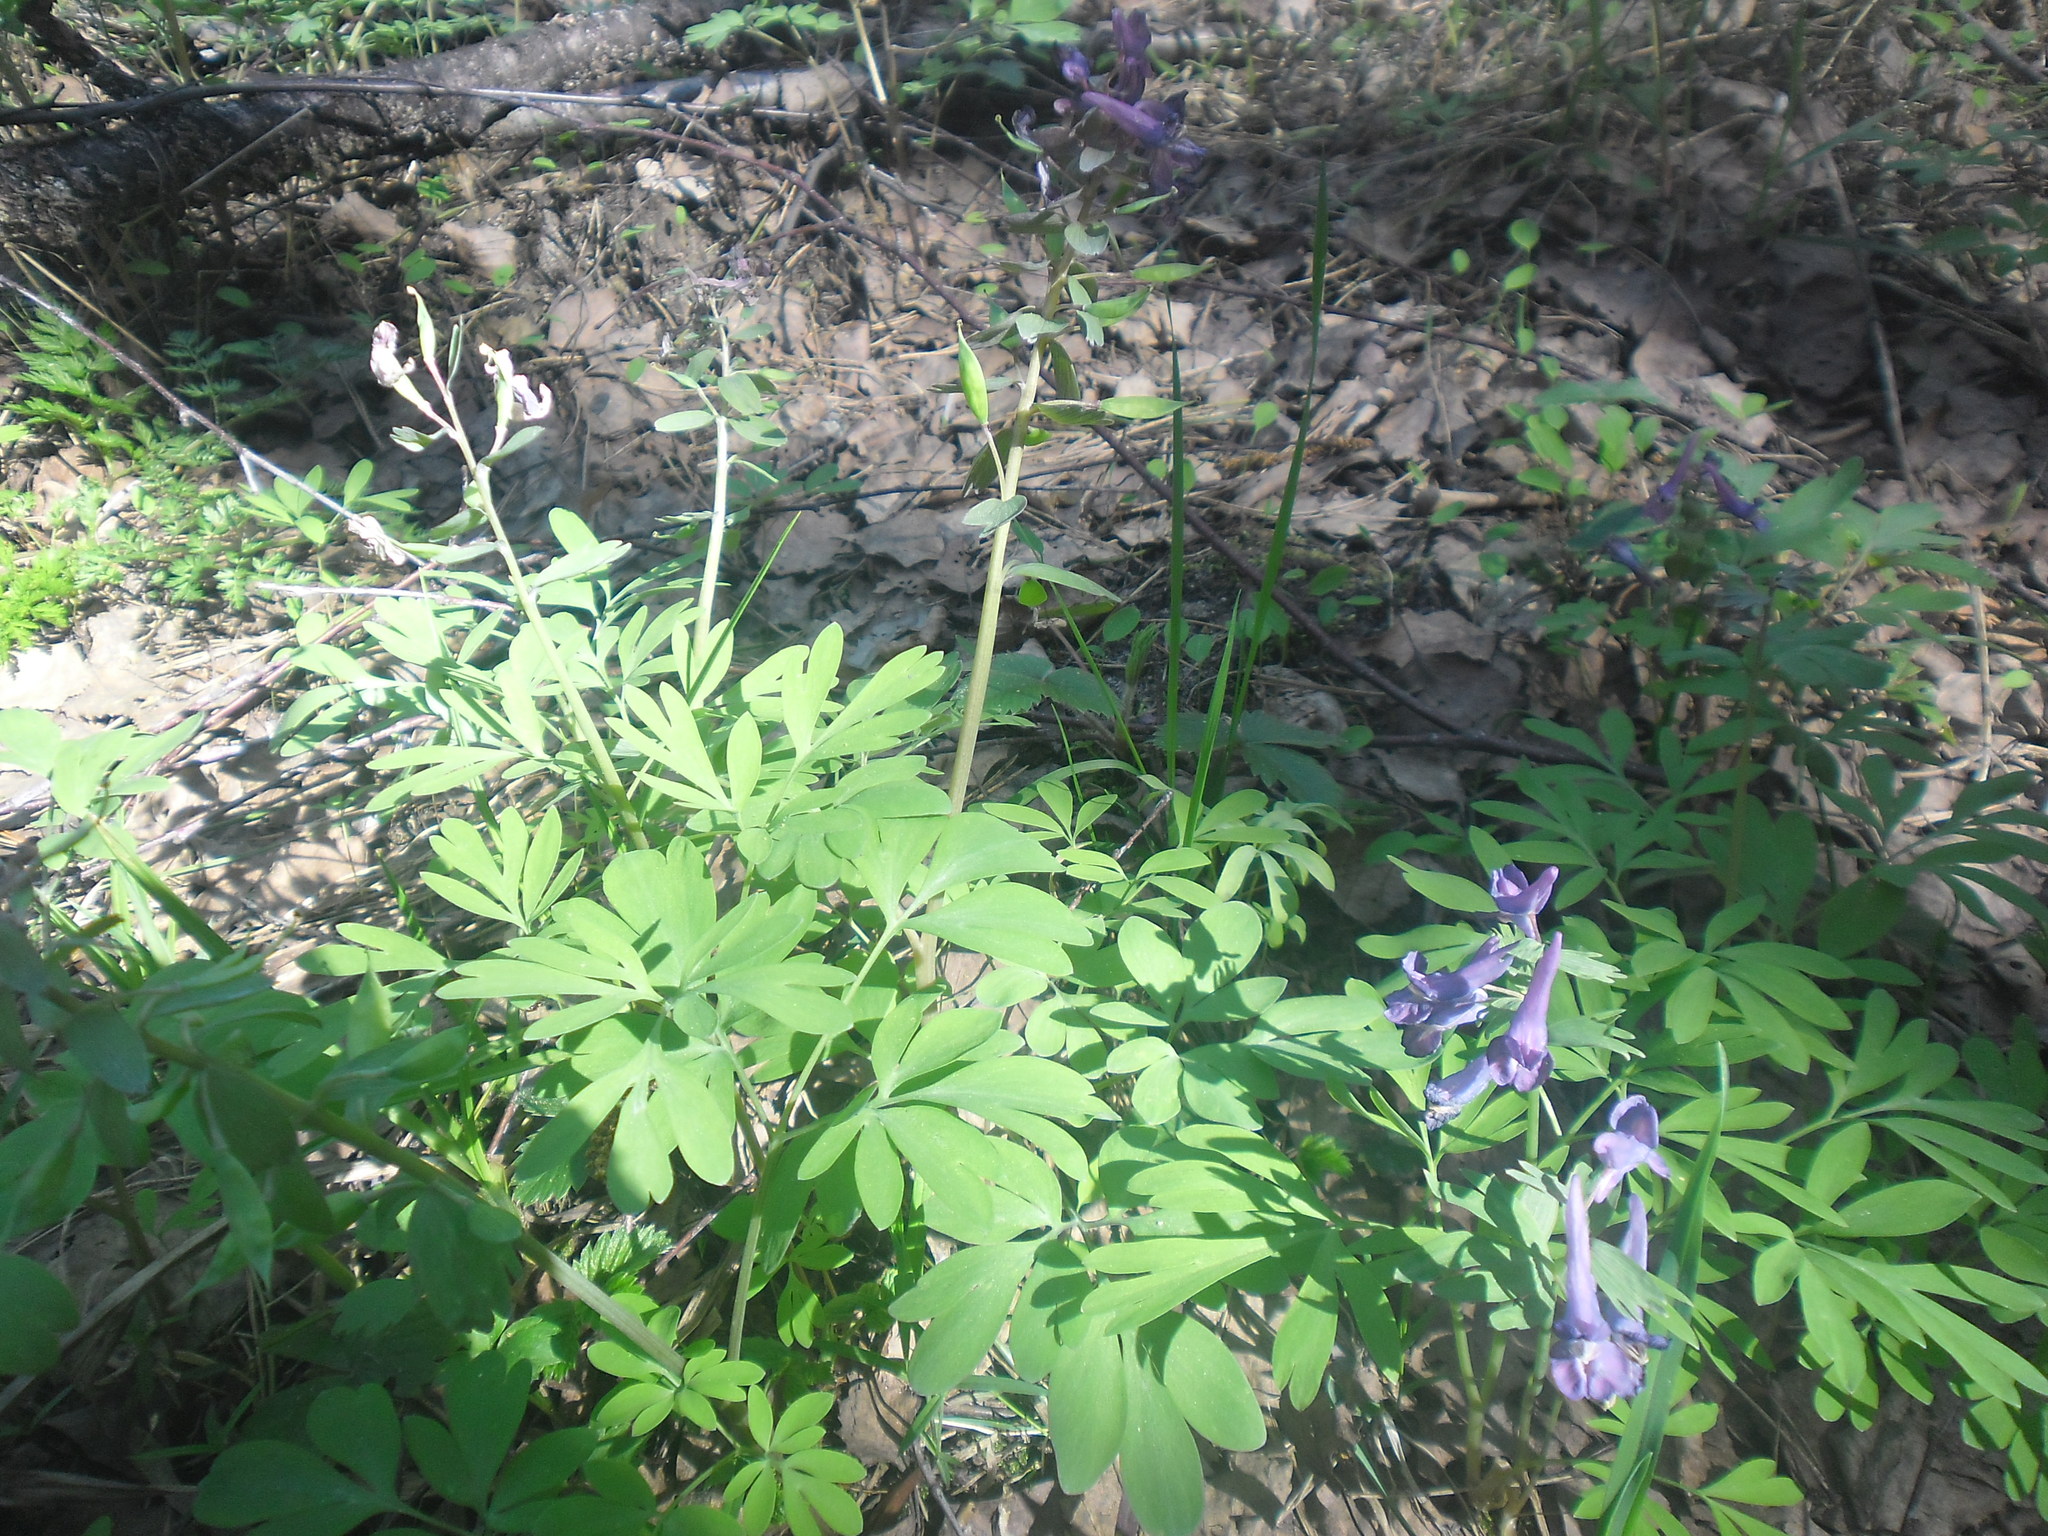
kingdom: Plantae
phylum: Tracheophyta
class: Magnoliopsida
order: Ranunculales
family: Papaveraceae
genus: Corydalis
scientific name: Corydalis solida
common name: Bird-in-a-bush
